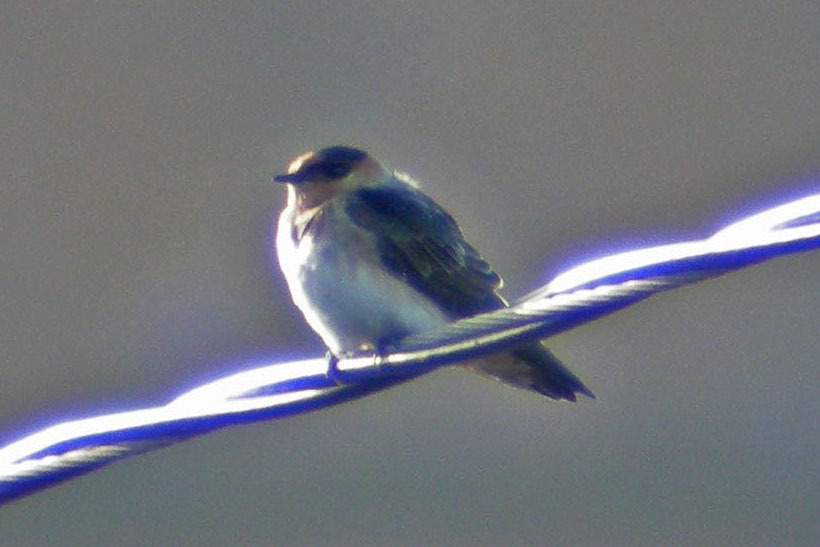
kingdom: Animalia
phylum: Chordata
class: Aves
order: Passeriformes
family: Hirundinidae
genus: Petrochelidon
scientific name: Petrochelidon fulva
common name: Cave swallow
